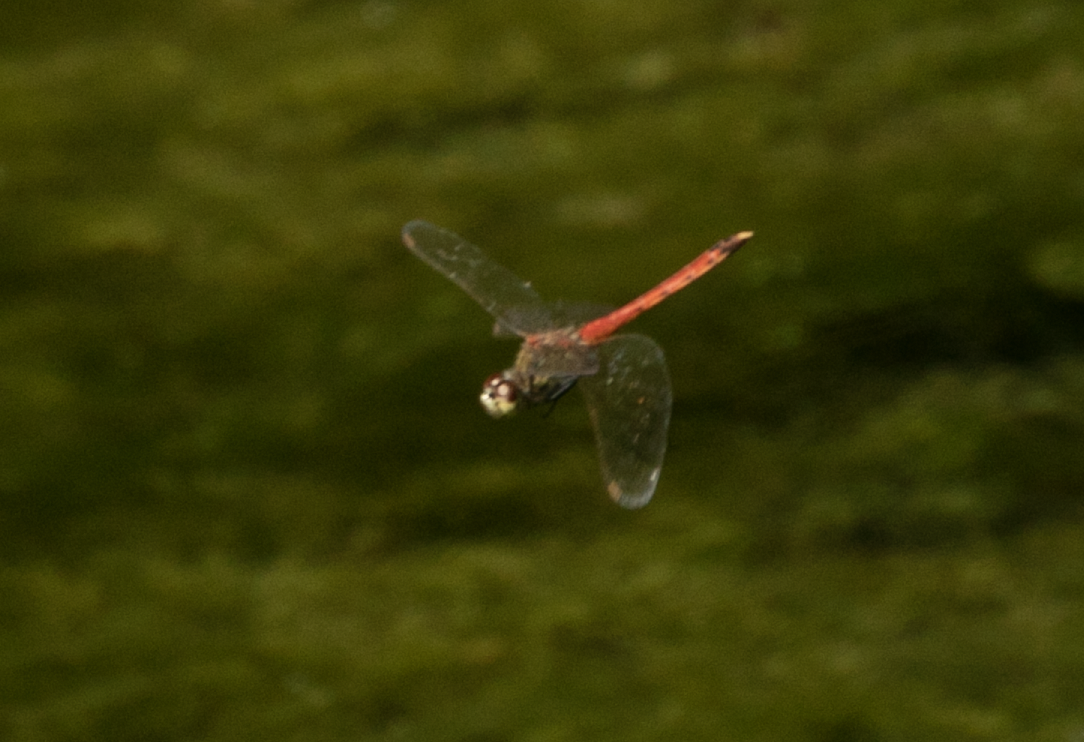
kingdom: Animalia
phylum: Arthropoda
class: Insecta
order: Odonata
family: Libellulidae
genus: Sympetrum
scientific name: Sympetrum depressiusculum
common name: Spotted darter
